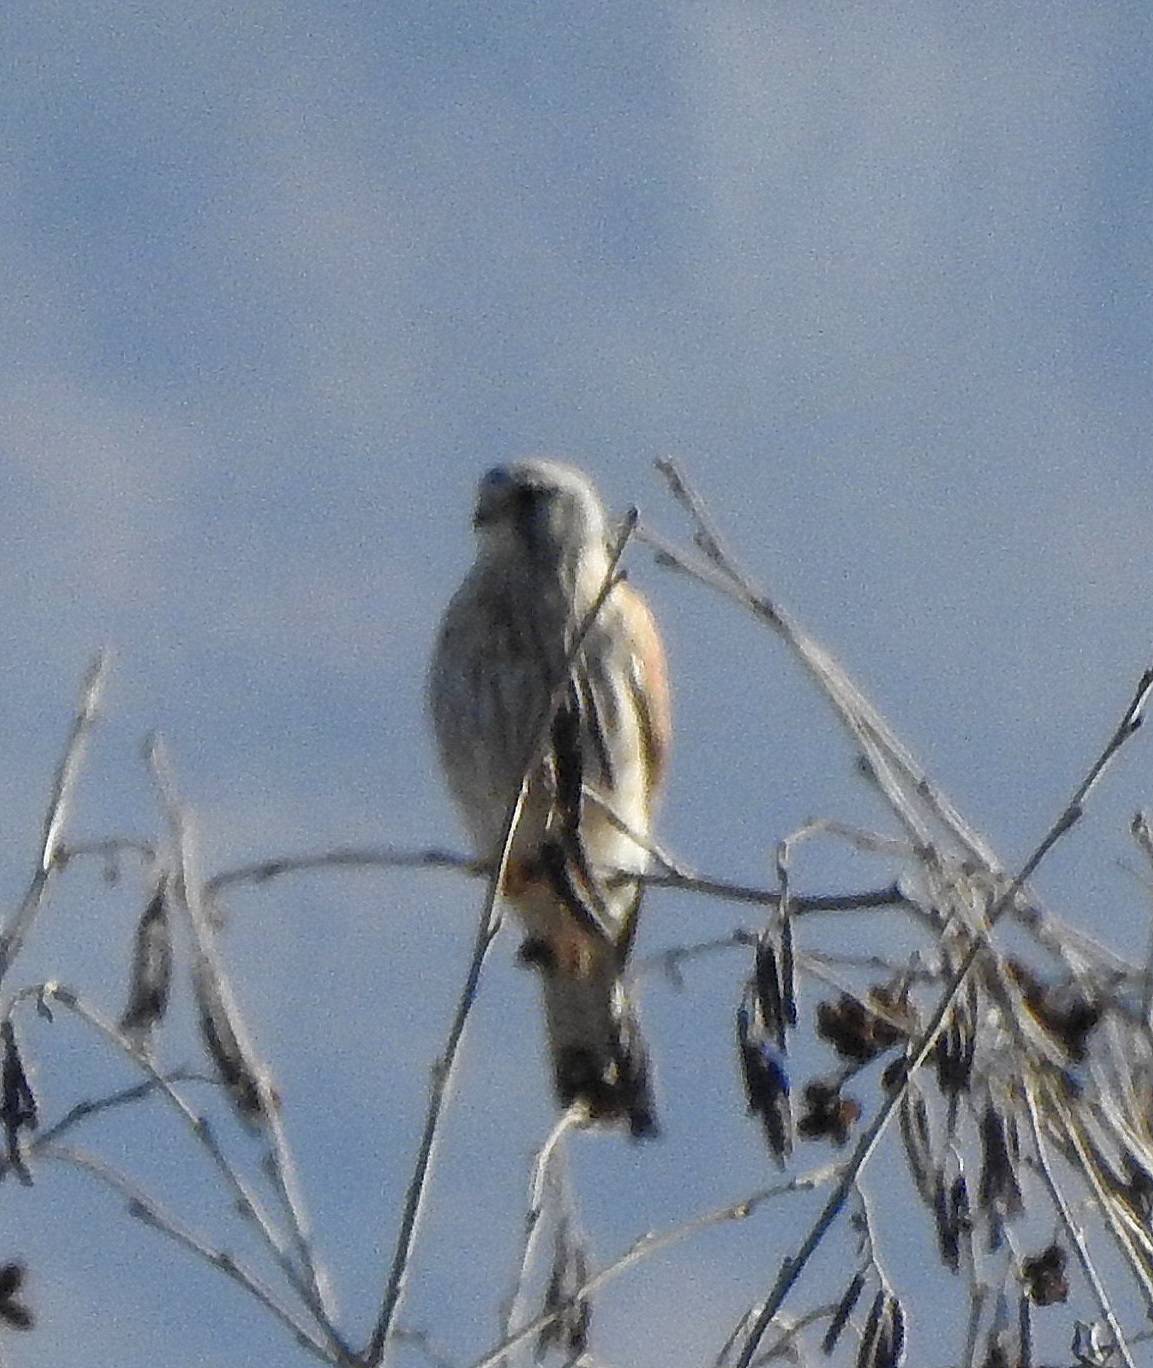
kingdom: Animalia
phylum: Chordata
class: Aves
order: Falconiformes
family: Falconidae
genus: Falco
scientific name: Falco tinnunculus
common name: Common kestrel
